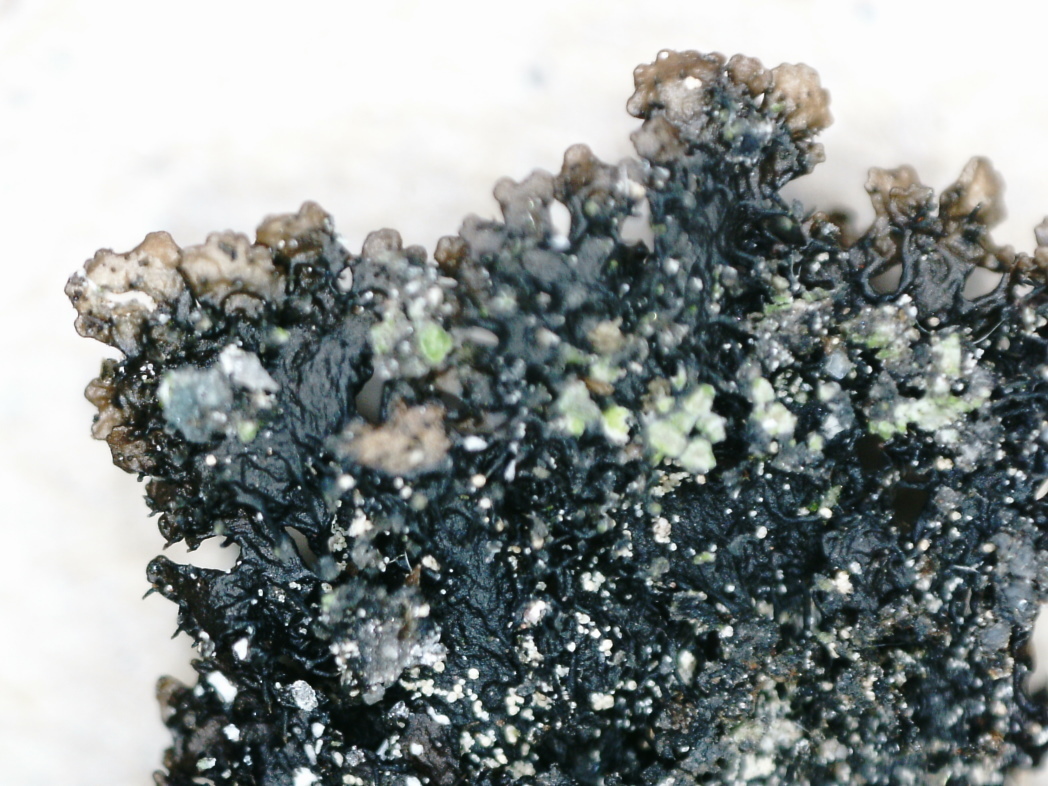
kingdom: Fungi
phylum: Ascomycota
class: Lecanoromycetes
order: Lecanorales
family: Parmeliaceae
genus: Montanelia
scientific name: Montanelia sorediata
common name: Powdered camouflage lichen
